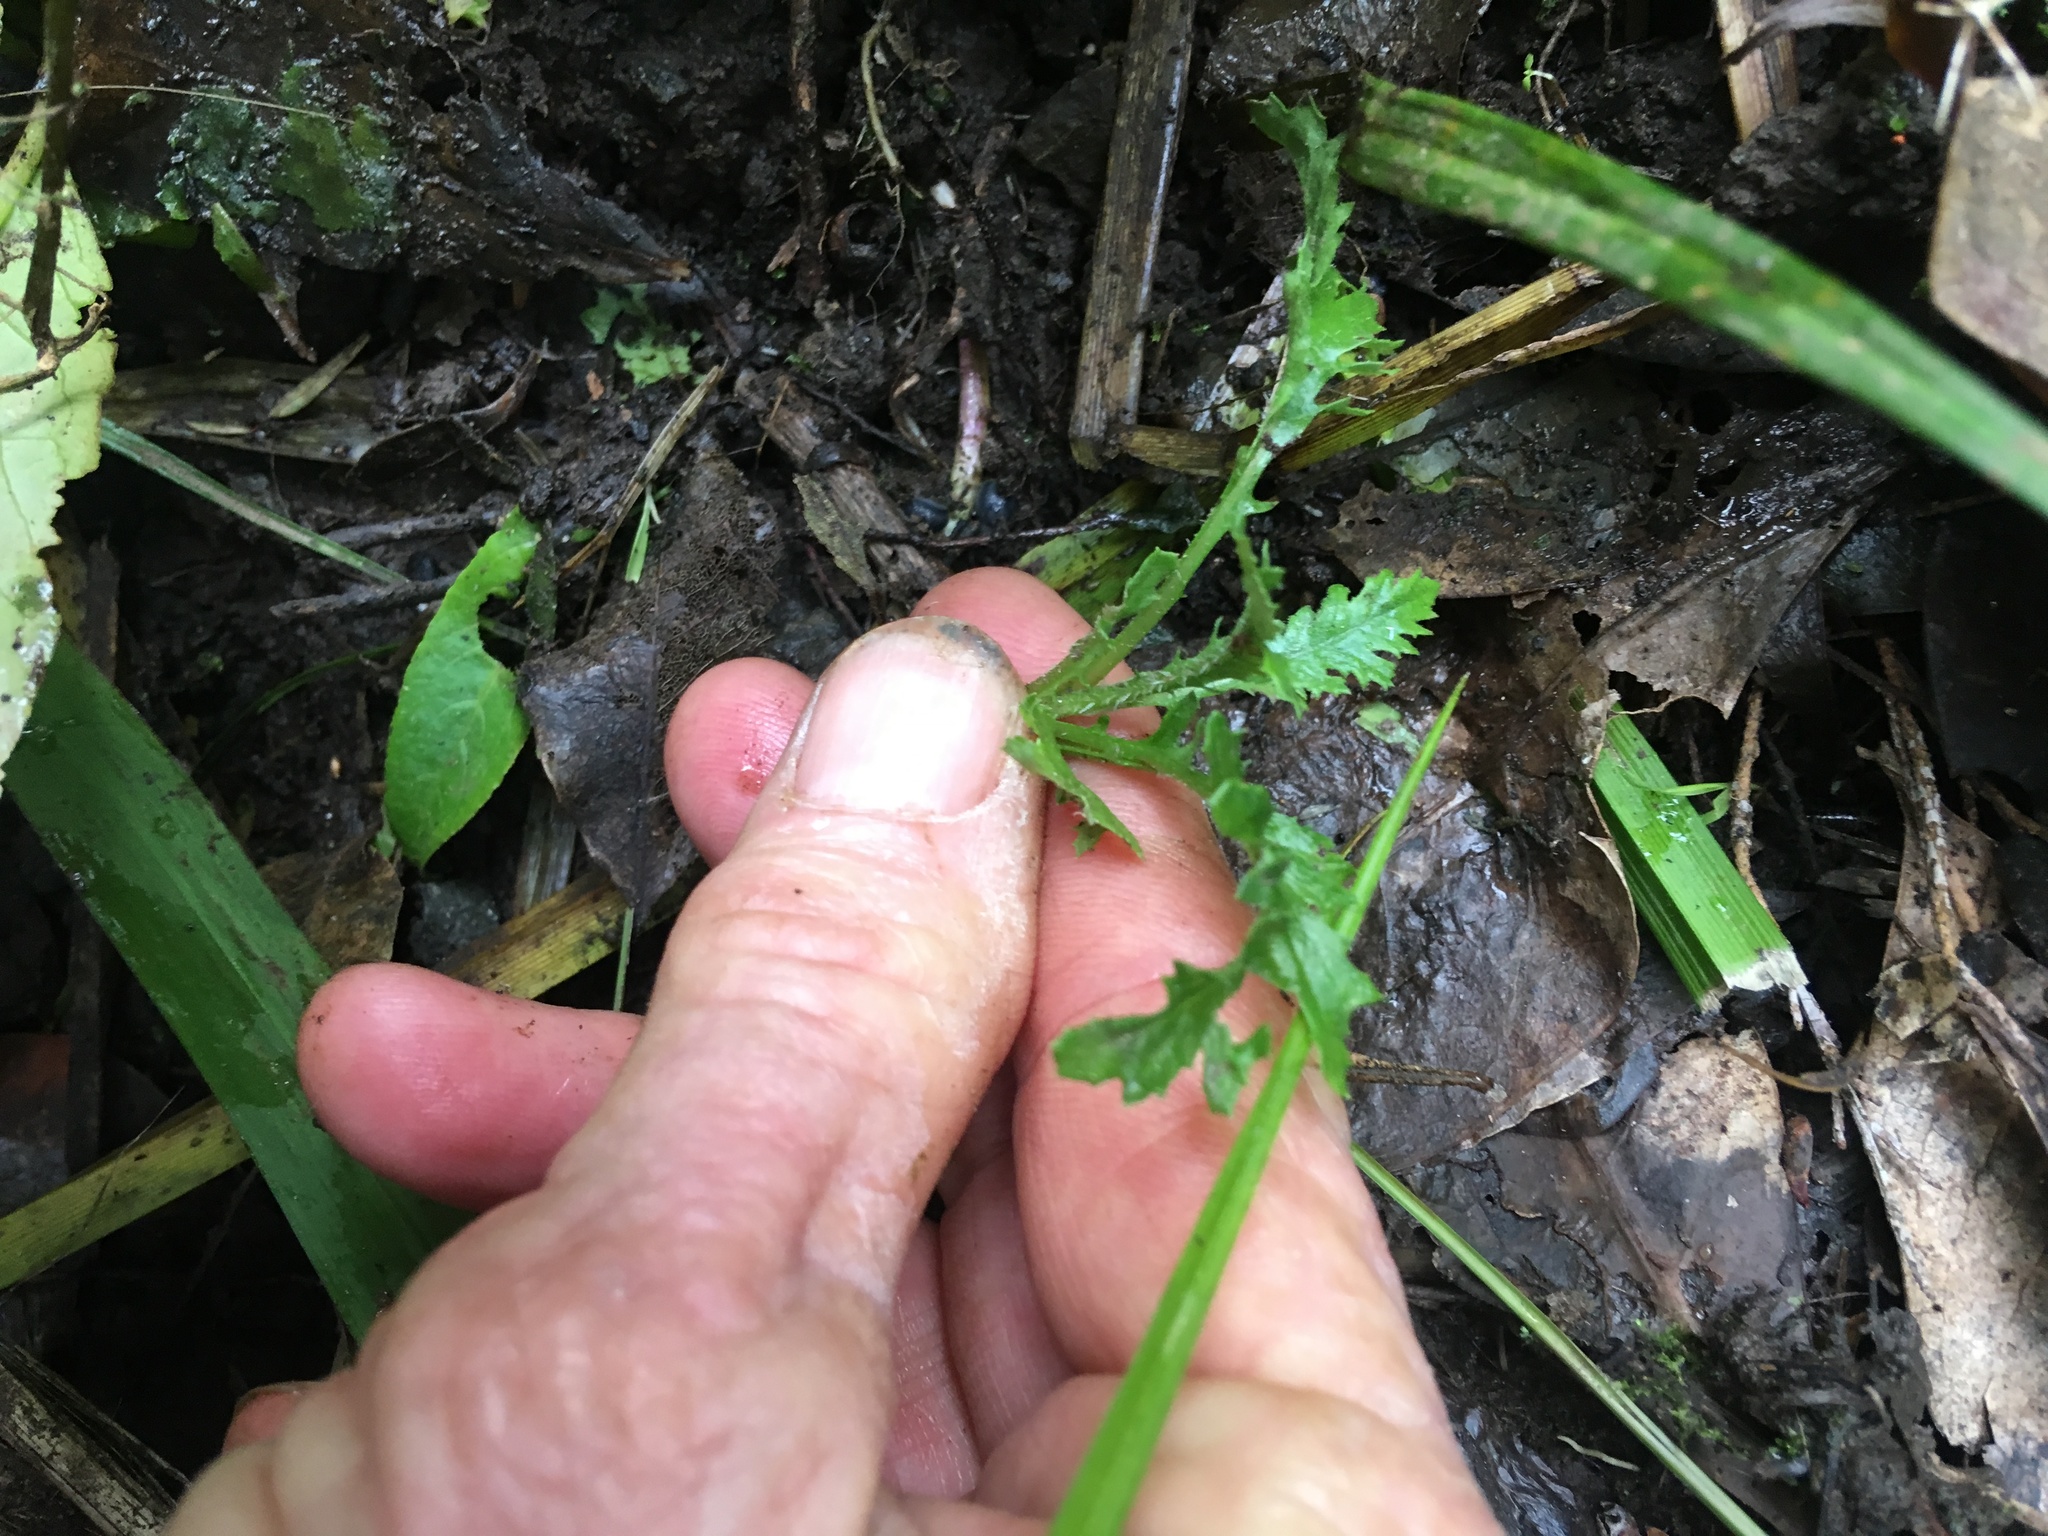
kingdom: Plantae
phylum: Tracheophyta
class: Magnoliopsida
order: Asterales
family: Asteraceae
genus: Senecio
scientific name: Senecio esleri
